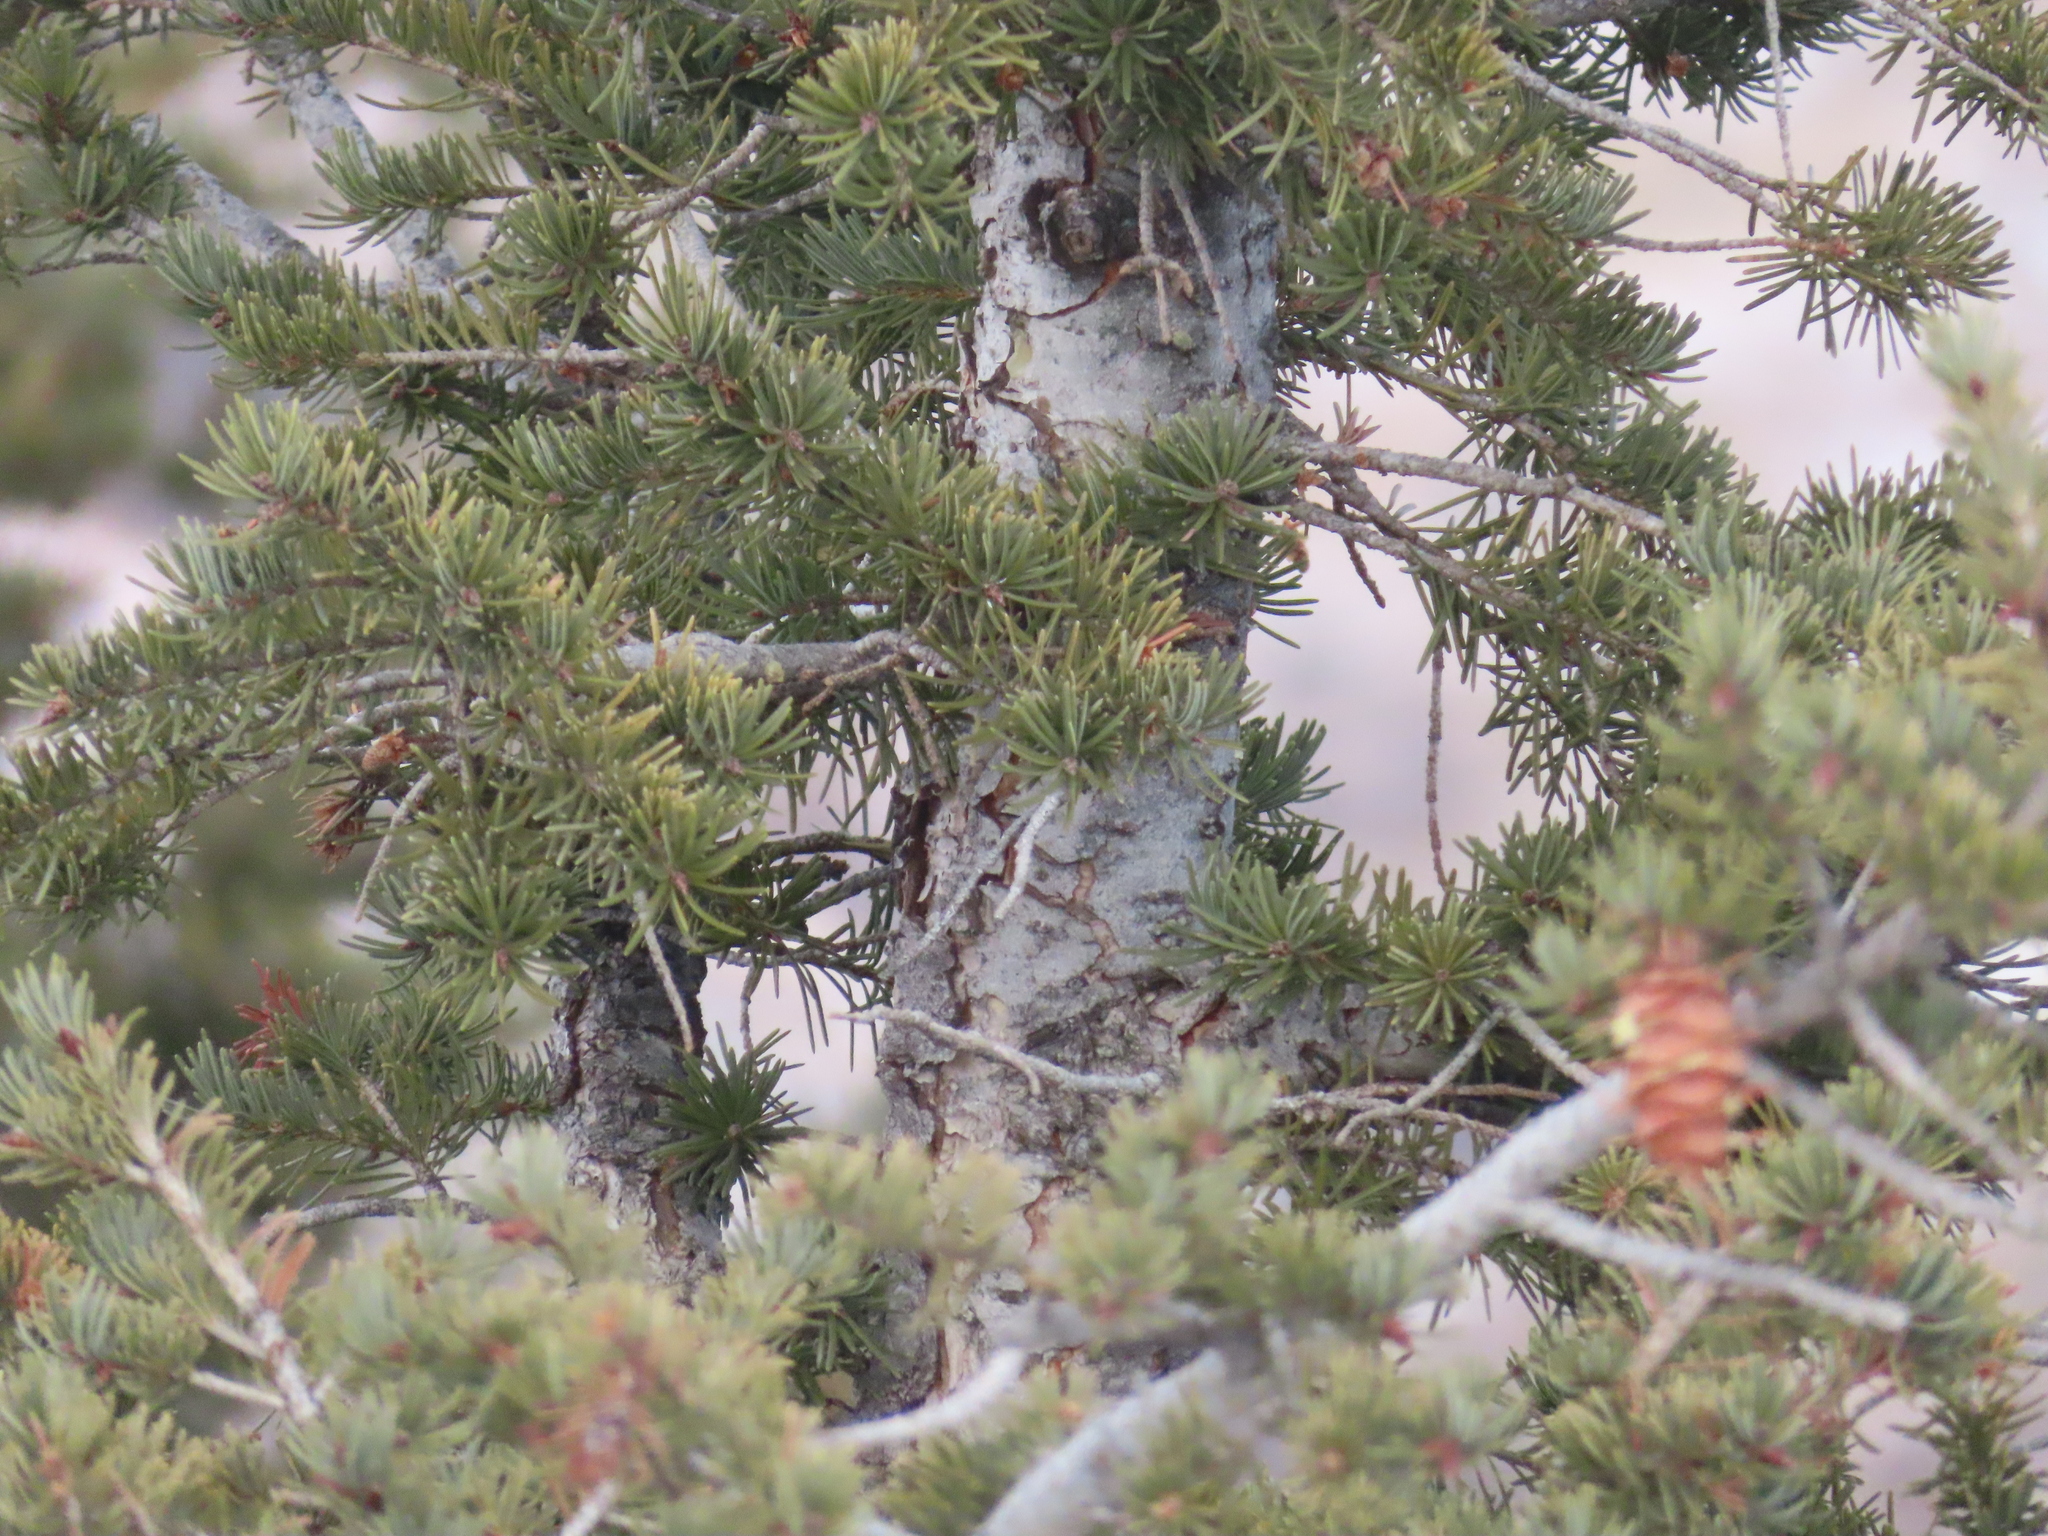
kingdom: Plantae
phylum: Tracheophyta
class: Pinopsida
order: Pinales
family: Pinaceae
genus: Pseudotsuga
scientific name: Pseudotsuga menziesii
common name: Douglas fir
